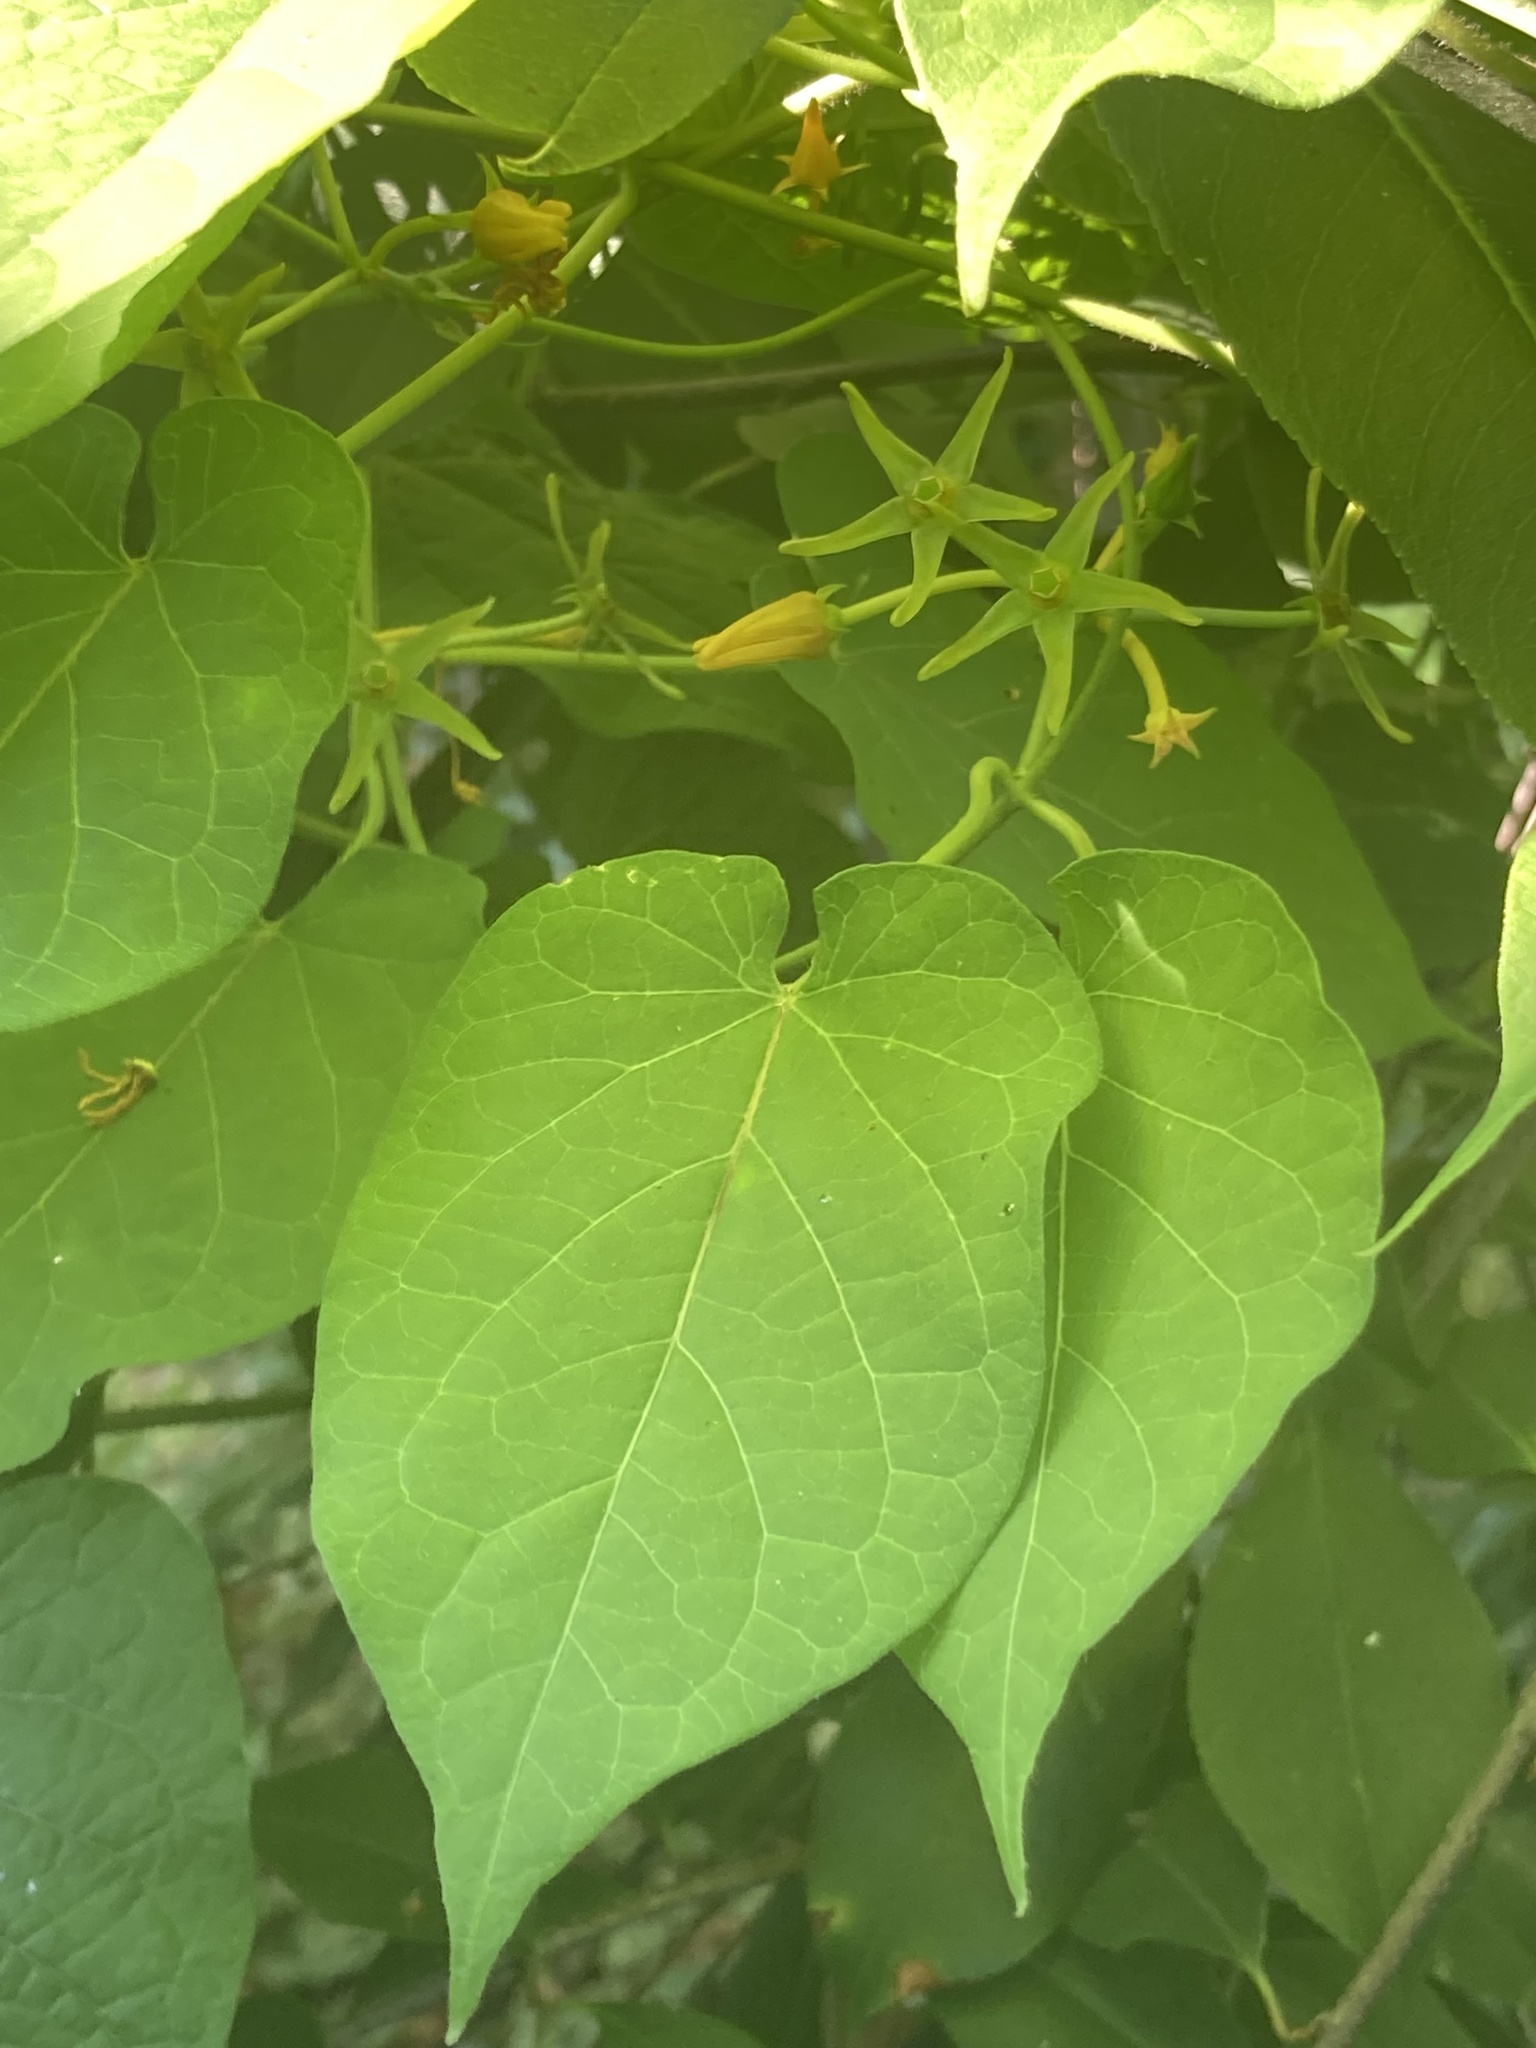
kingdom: Plantae
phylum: Tracheophyta
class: Magnoliopsida
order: Gentianales
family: Apocynaceae
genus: Gonolobus
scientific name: Gonolobus suberosus
